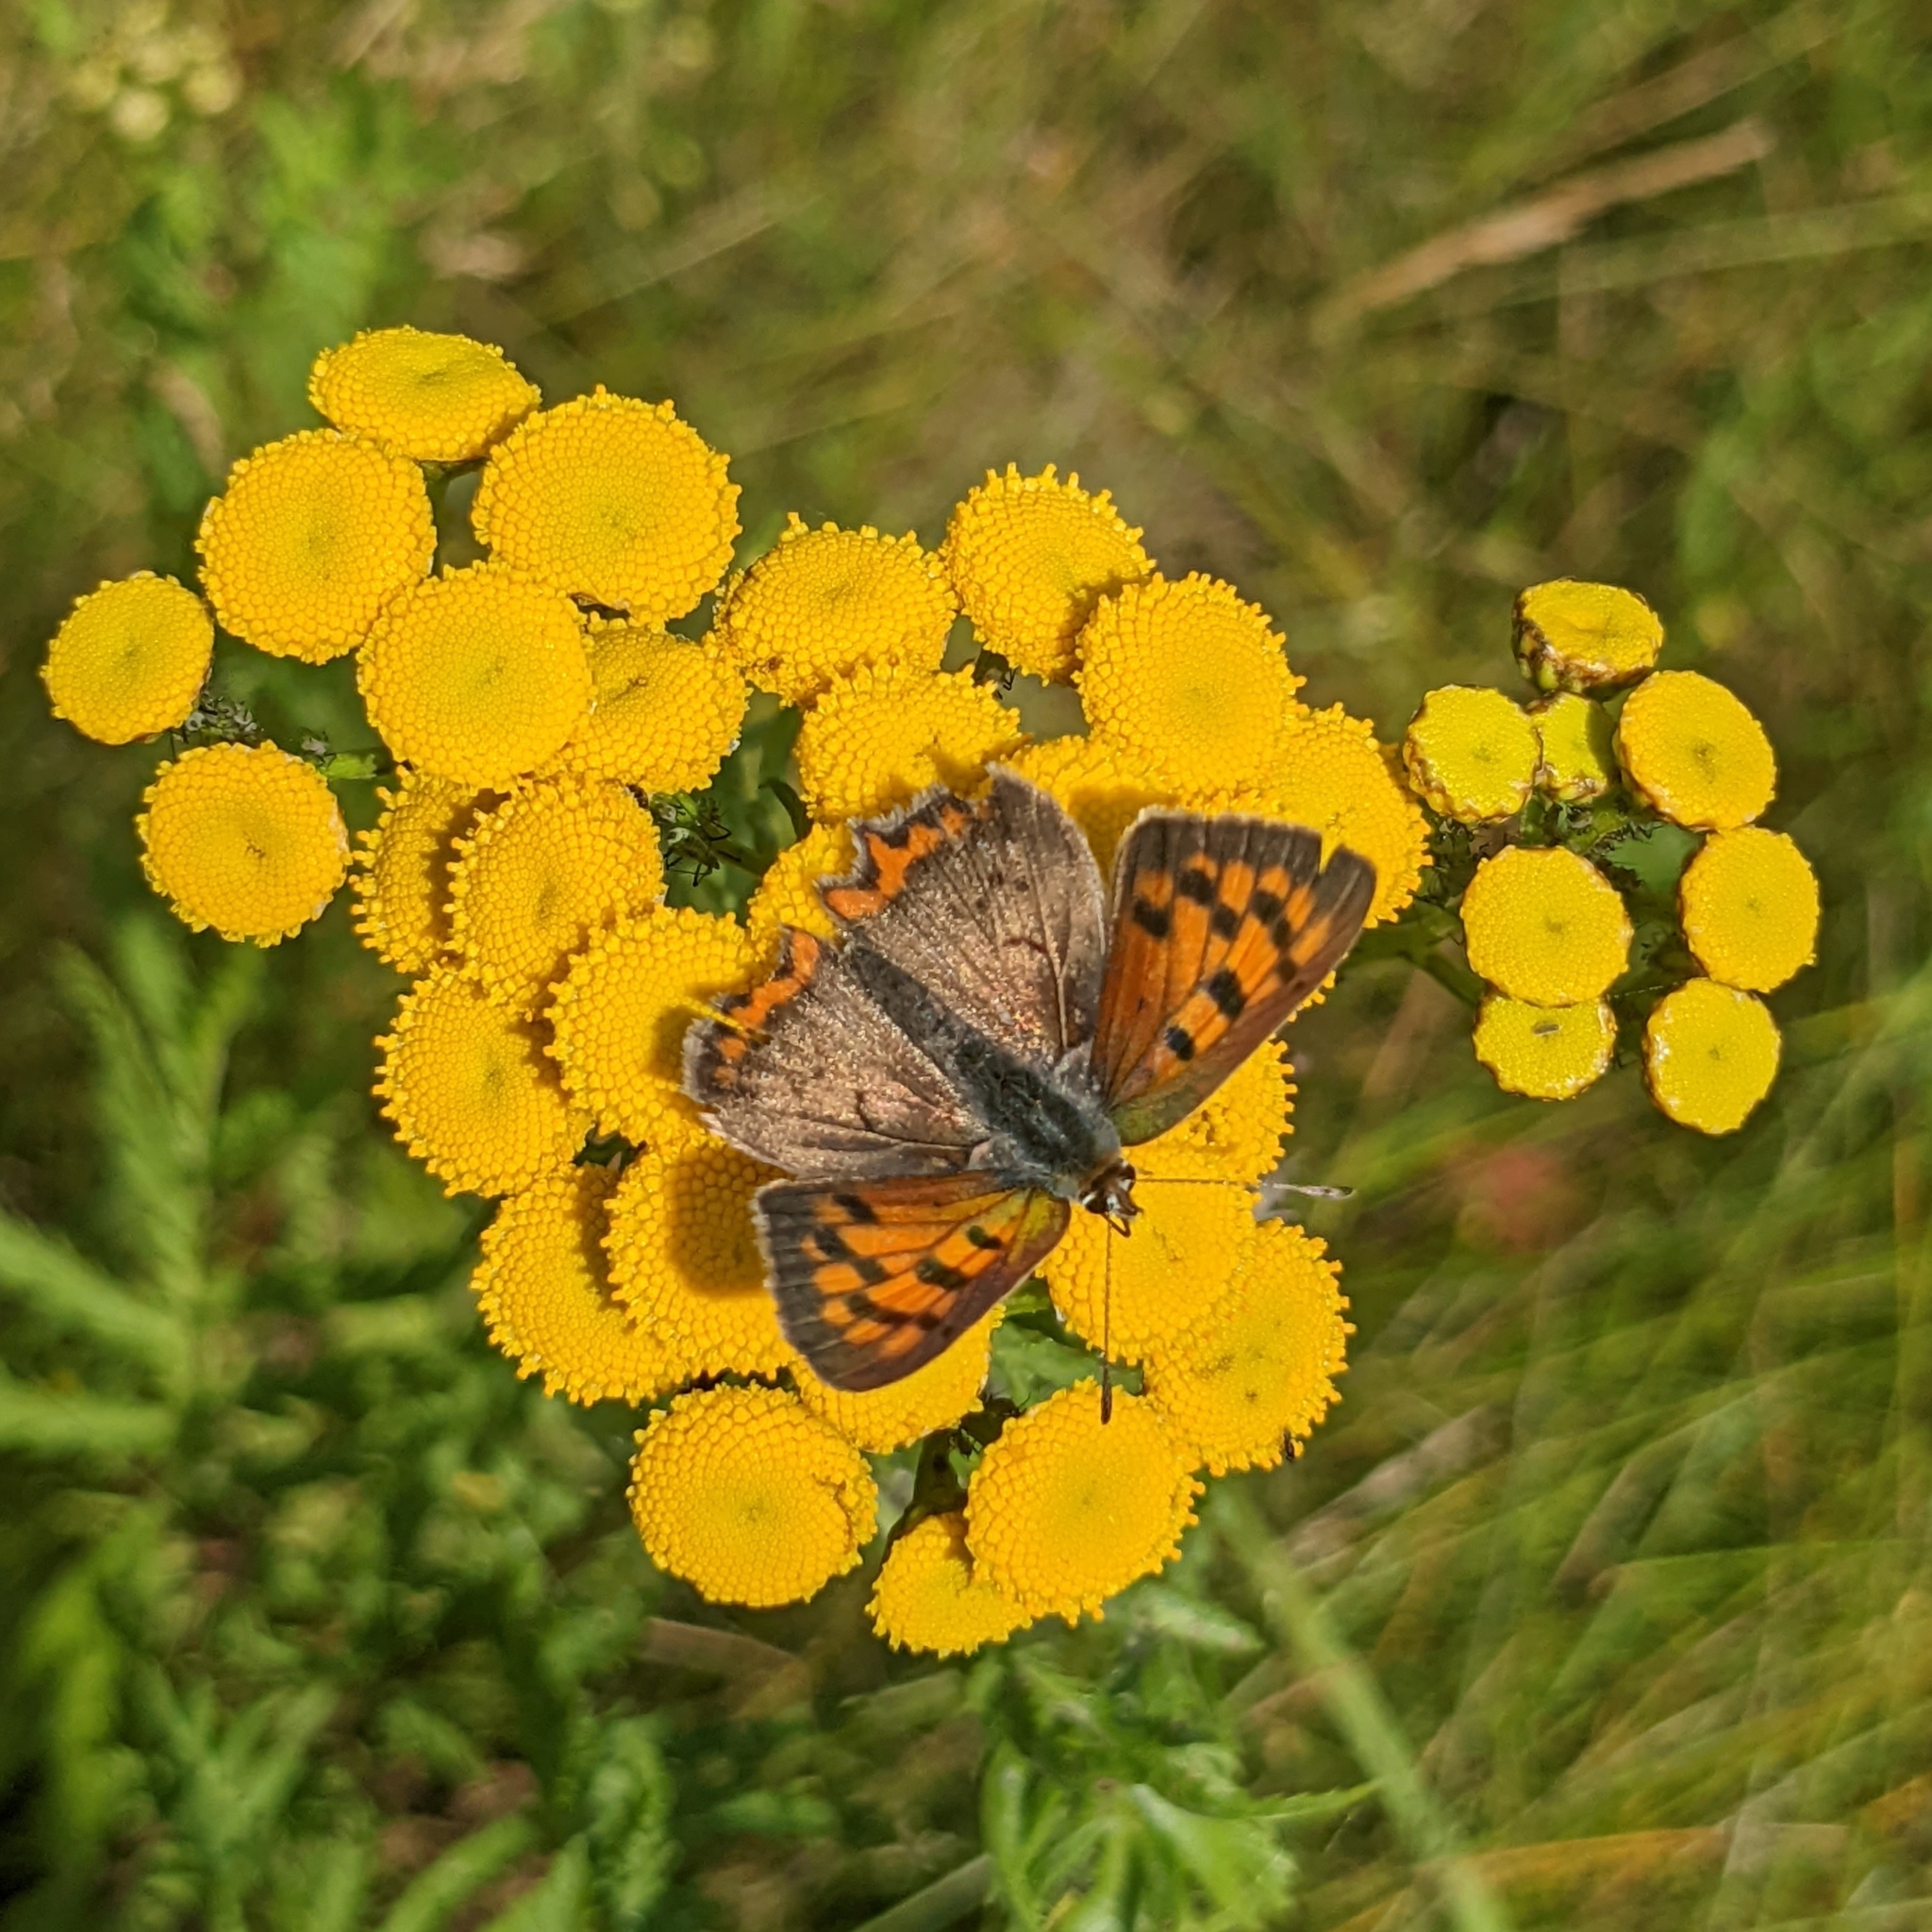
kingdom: Animalia
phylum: Arthropoda
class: Insecta
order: Lepidoptera
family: Lycaenidae
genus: Lycaena
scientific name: Lycaena phlaeas
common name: Small copper
